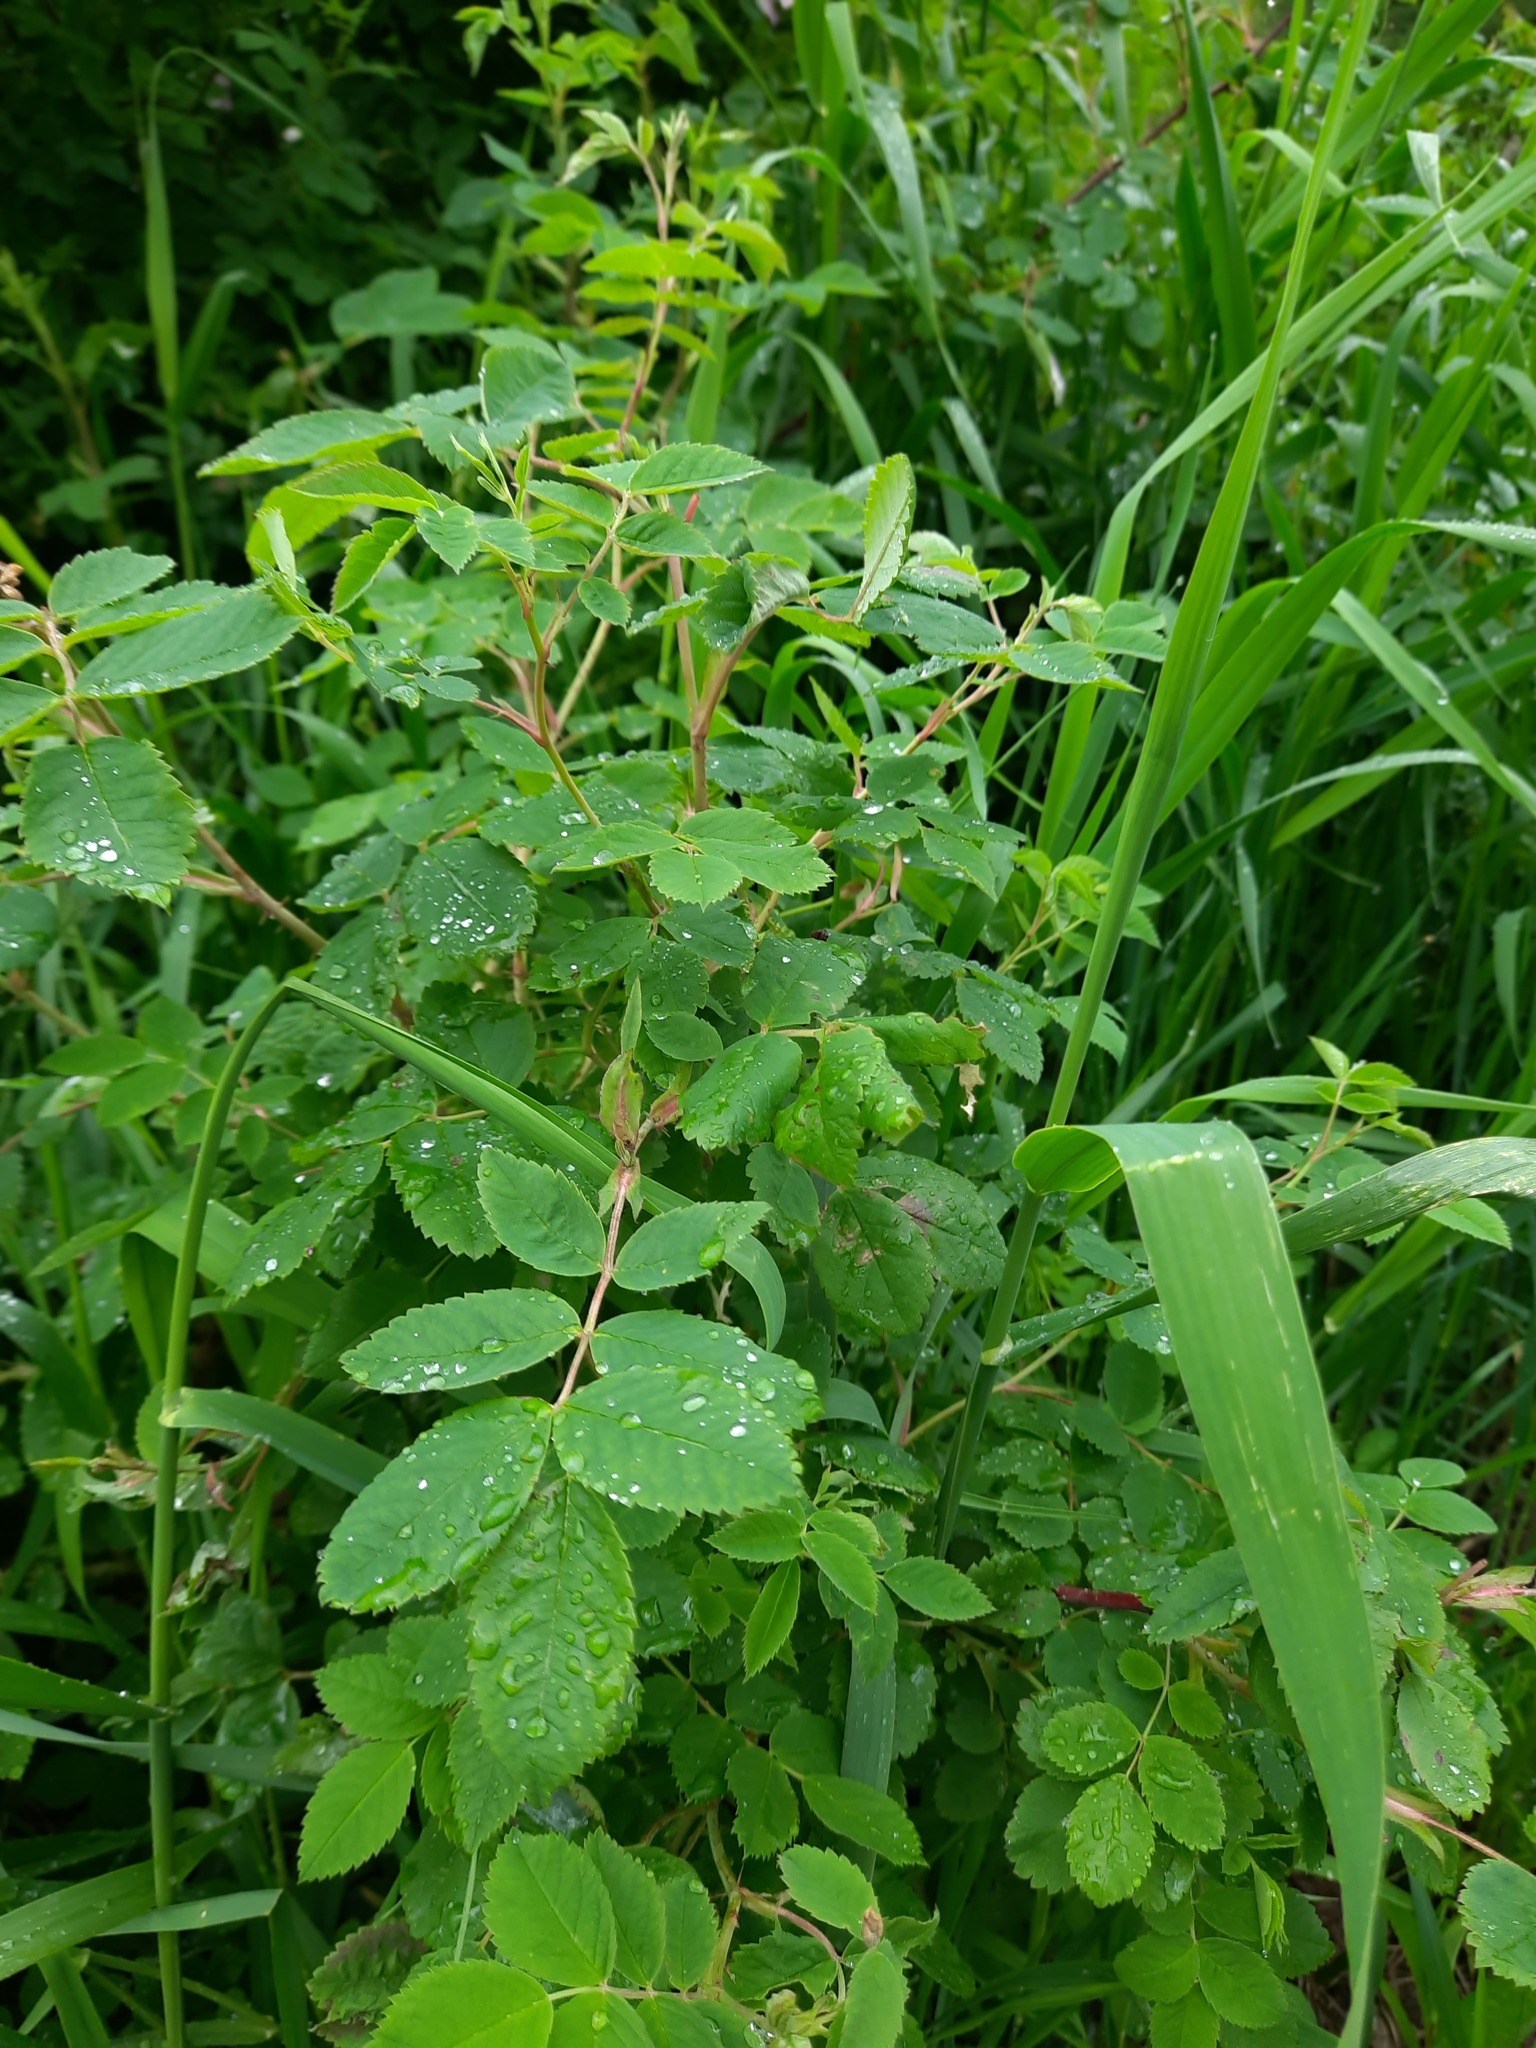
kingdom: Plantae
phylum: Tracheophyta
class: Magnoliopsida
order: Rosales
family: Rosaceae
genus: Rosa
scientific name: Rosa acicularis
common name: Prickly rose
